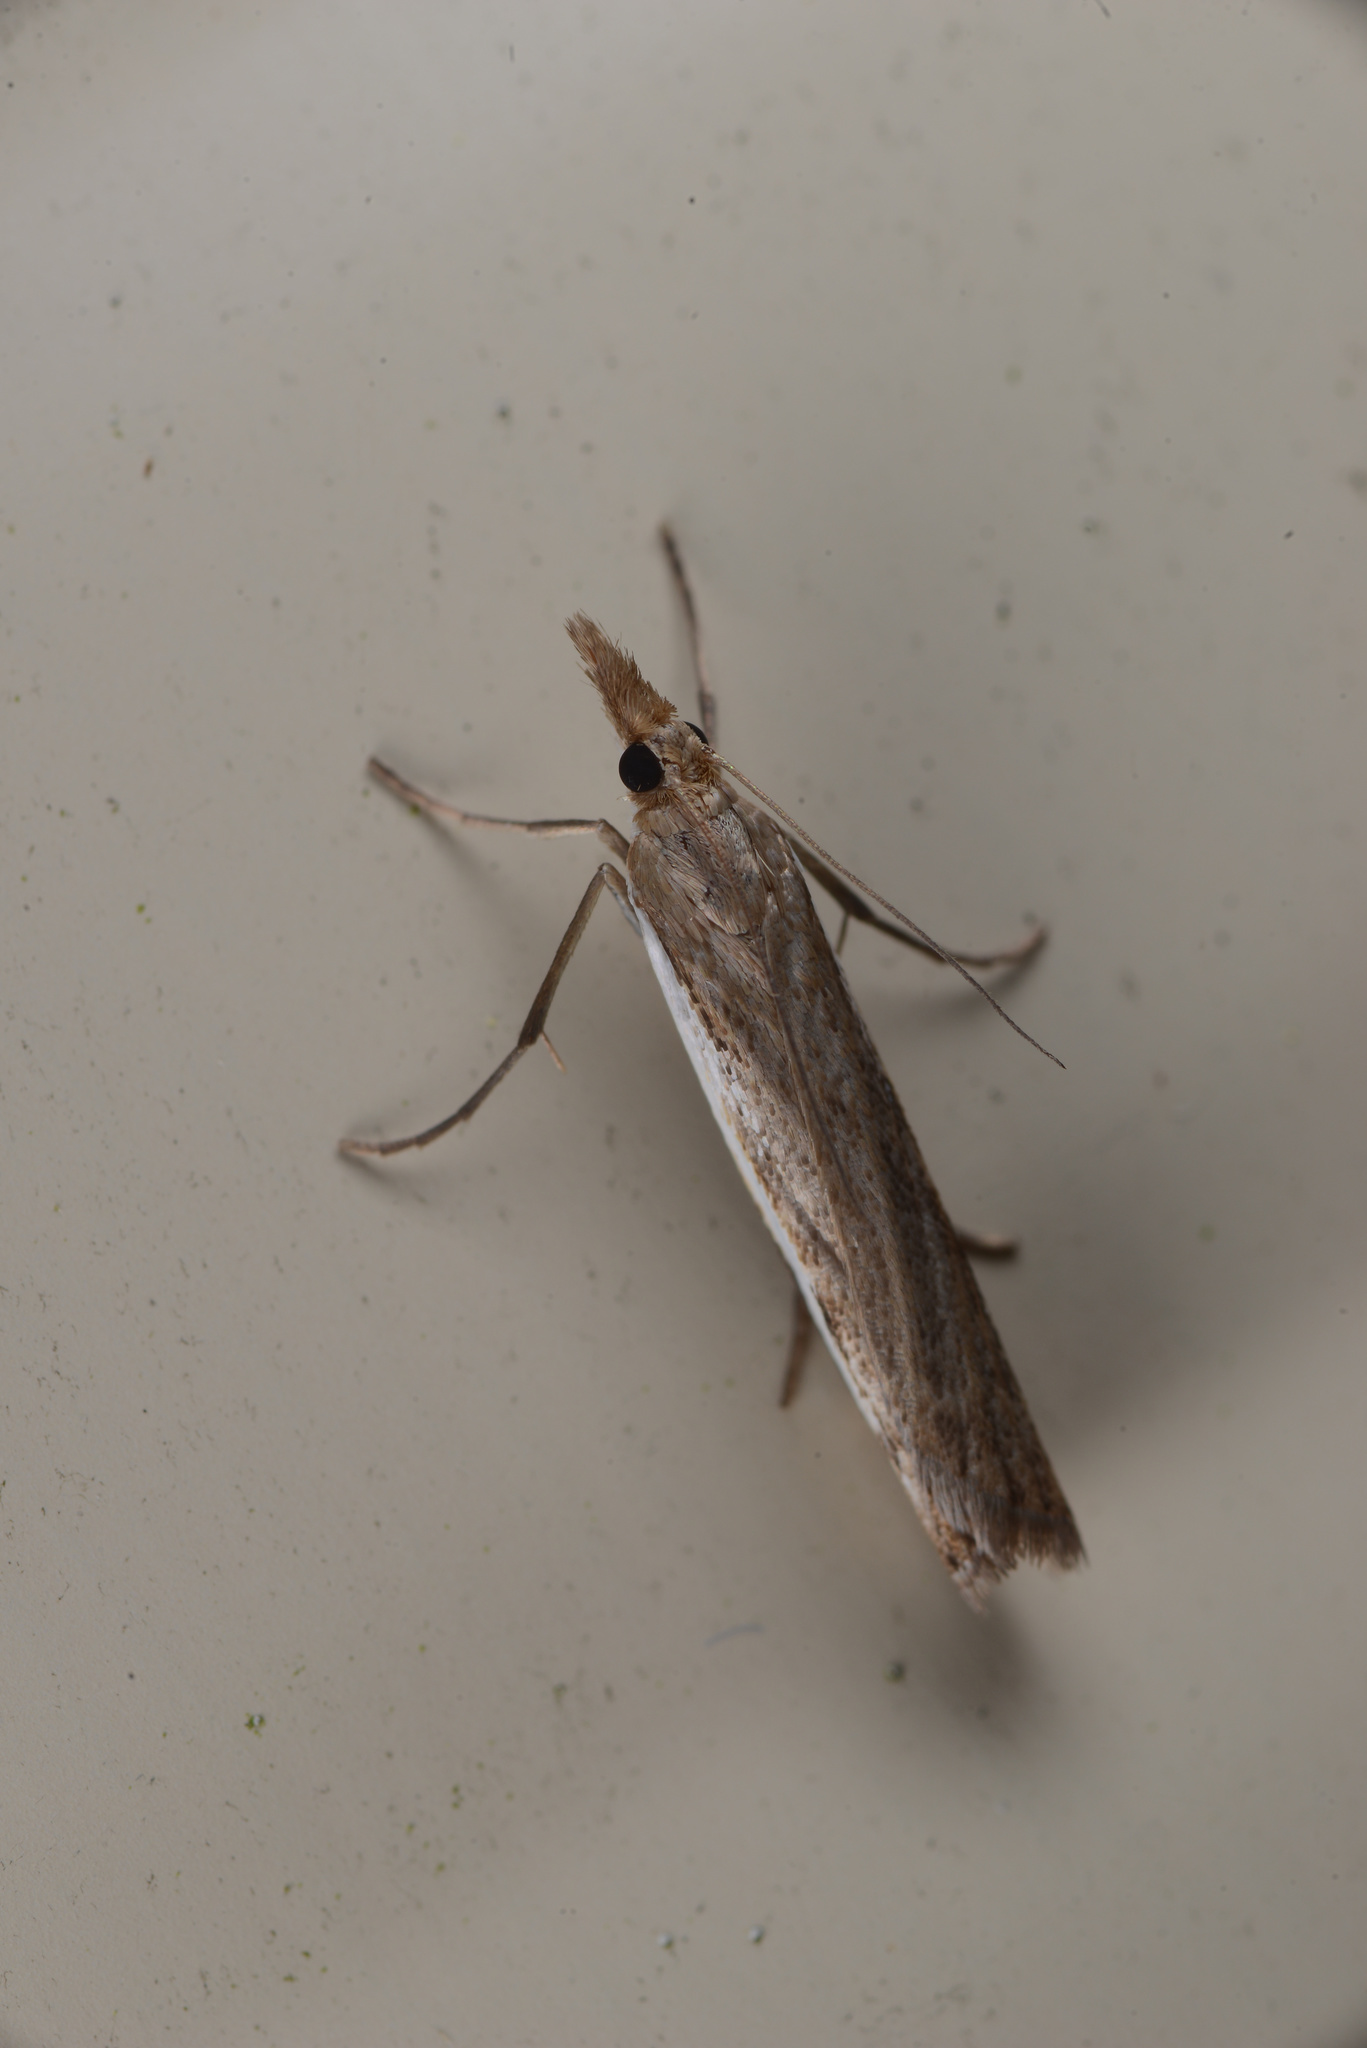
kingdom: Animalia
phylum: Arthropoda
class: Insecta
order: Lepidoptera
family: Crambidae
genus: Orocrambus
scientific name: Orocrambus flexuosellus
